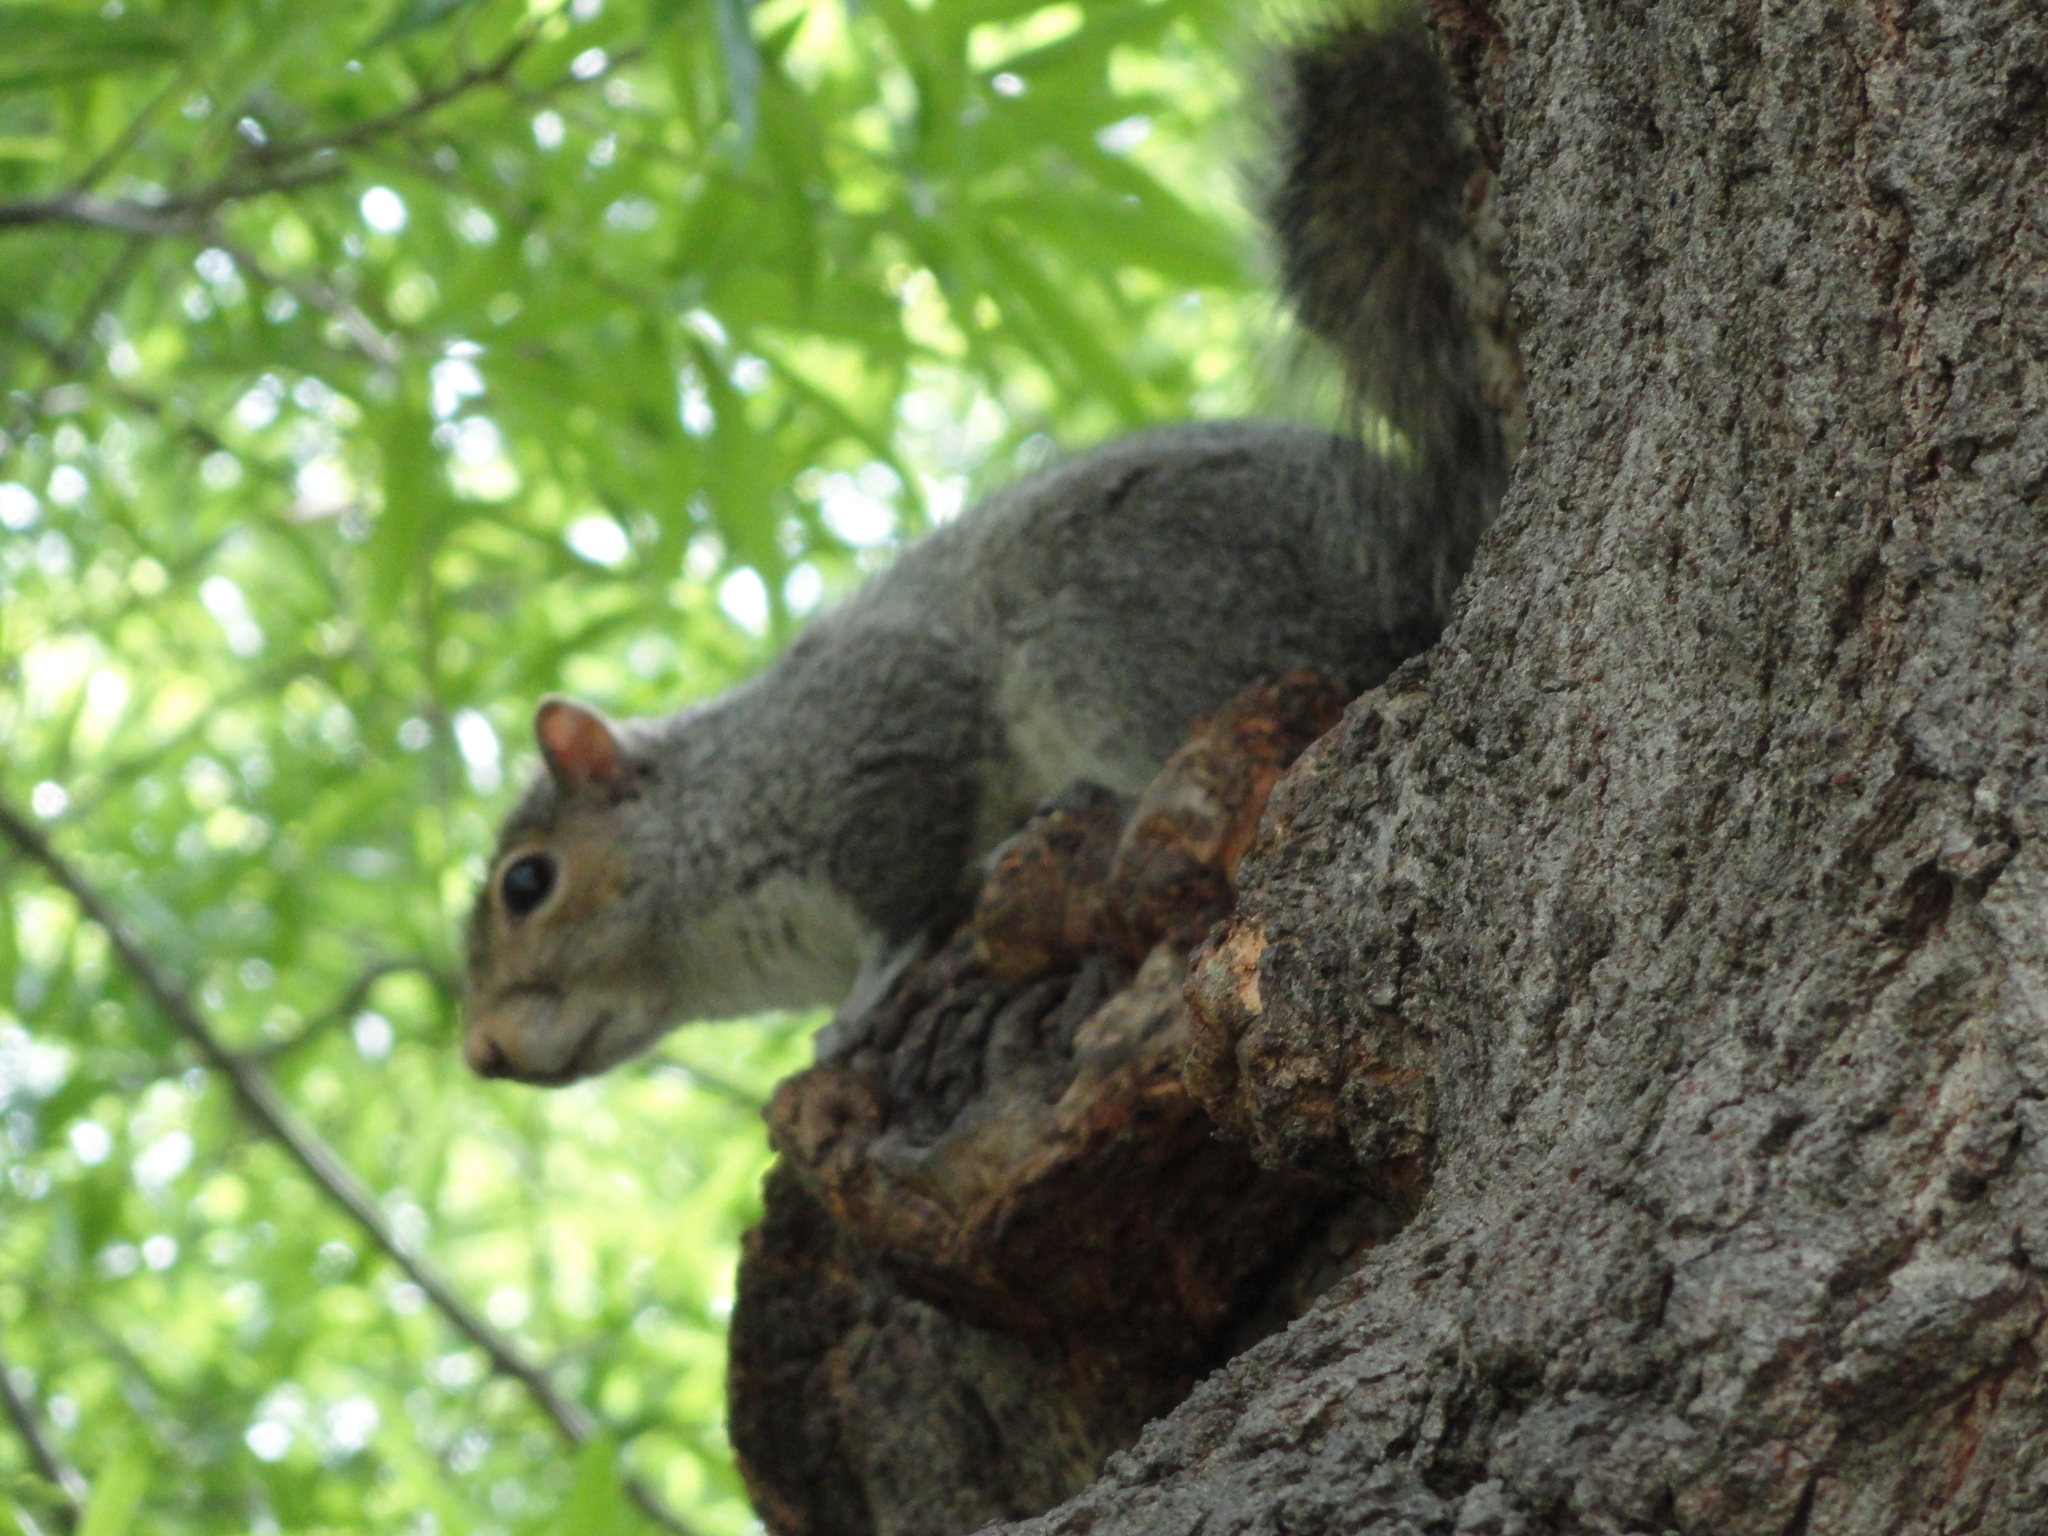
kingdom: Animalia
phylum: Chordata
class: Mammalia
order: Rodentia
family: Sciuridae
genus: Sciurus
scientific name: Sciurus carolinensis
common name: Eastern gray squirrel
